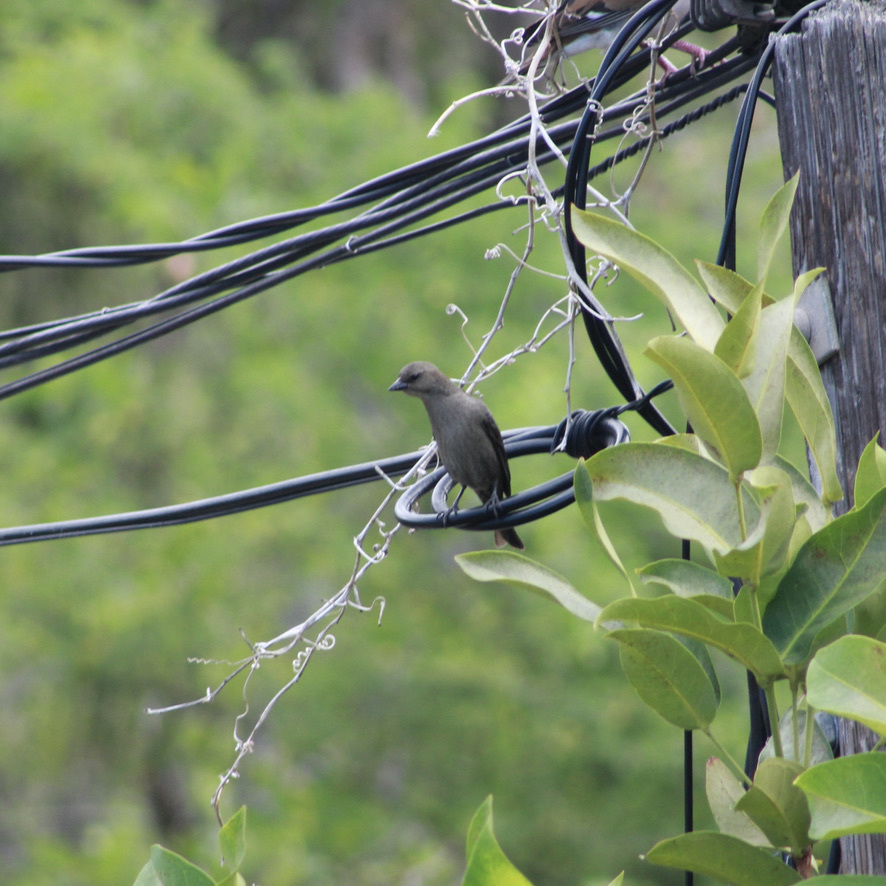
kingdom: Animalia
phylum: Chordata
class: Aves
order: Passeriformes
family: Icteridae
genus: Molothrus
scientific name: Molothrus bonariensis
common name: Shiny cowbird
